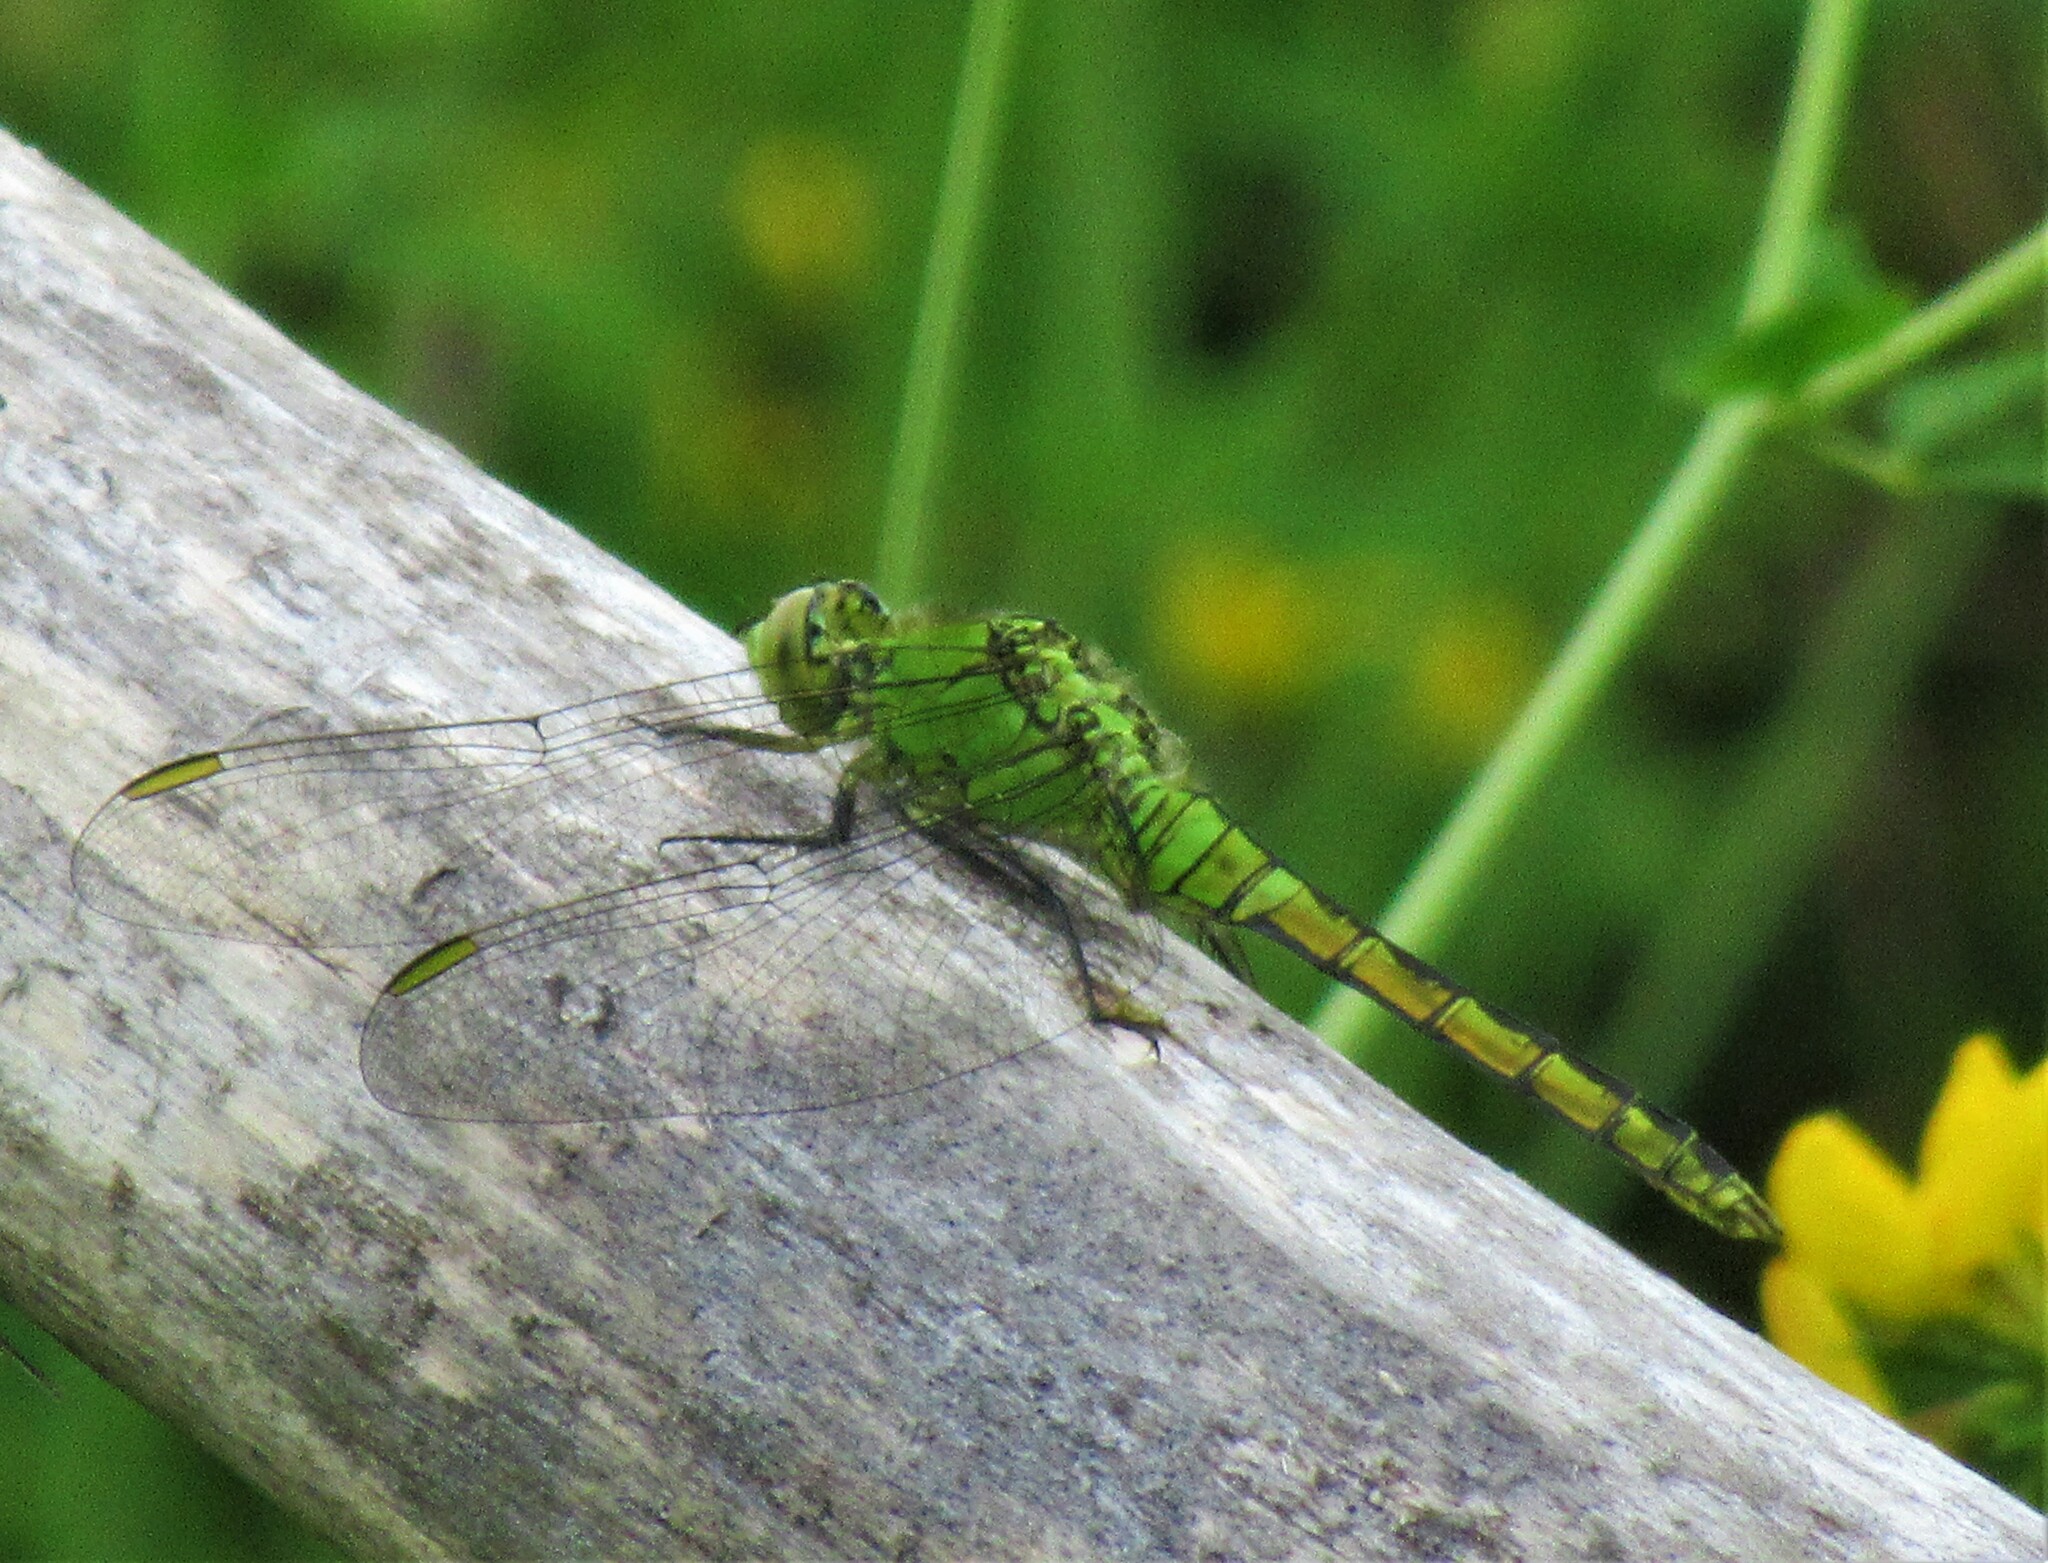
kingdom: Animalia
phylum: Arthropoda
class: Insecta
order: Odonata
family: Libellulidae
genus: Erythemis
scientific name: Erythemis collocata
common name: Western pondhawk
